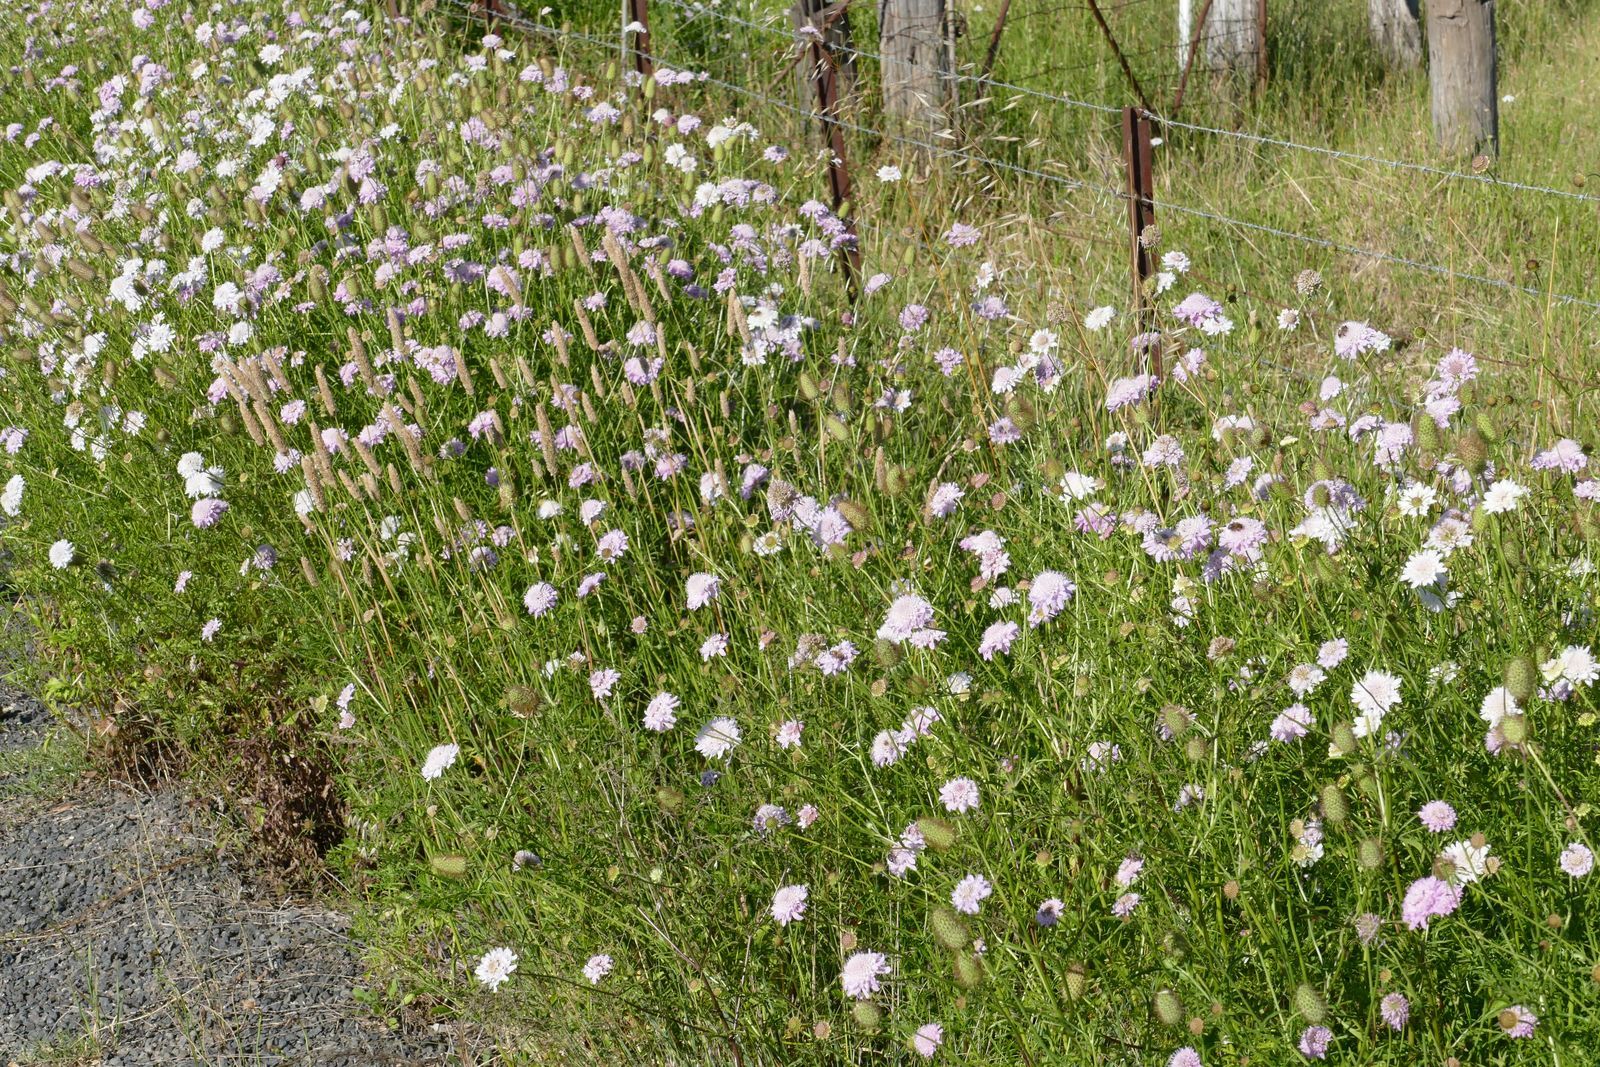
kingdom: Plantae
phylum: Tracheophyta
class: Magnoliopsida
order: Dipsacales
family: Caprifoliaceae
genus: Sixalix
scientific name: Sixalix atropurpurea
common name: Sweet scabious
